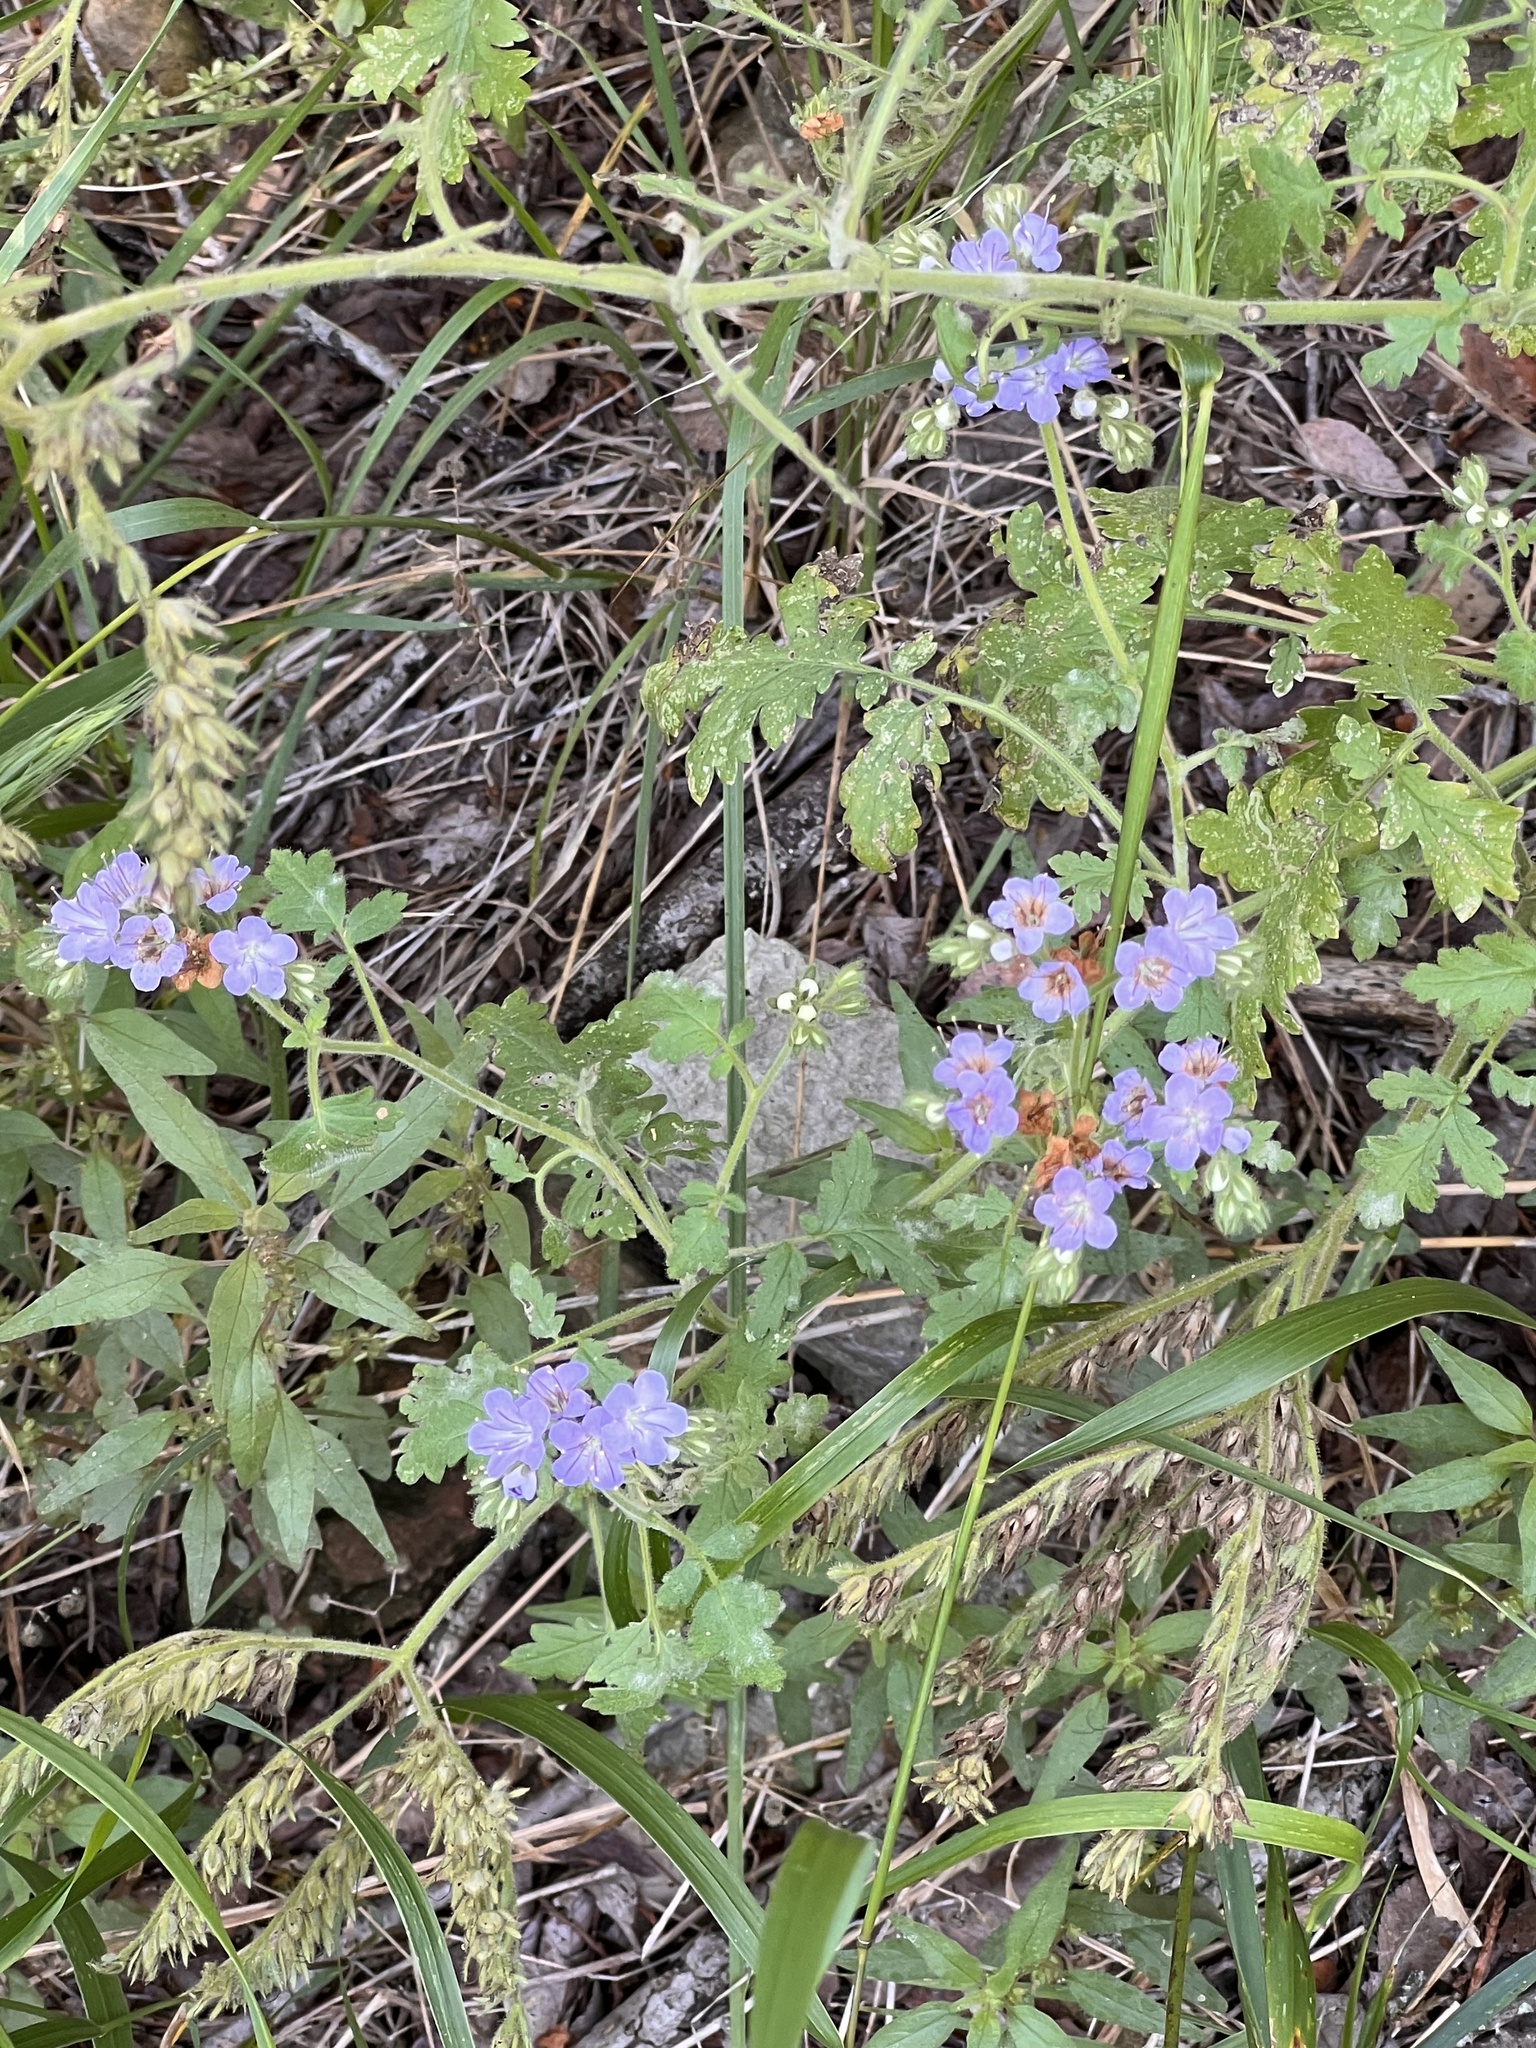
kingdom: Plantae
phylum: Tracheophyta
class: Magnoliopsida
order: Boraginales
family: Hydrophyllaceae
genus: Phacelia
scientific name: Phacelia congesta
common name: Blue curls
